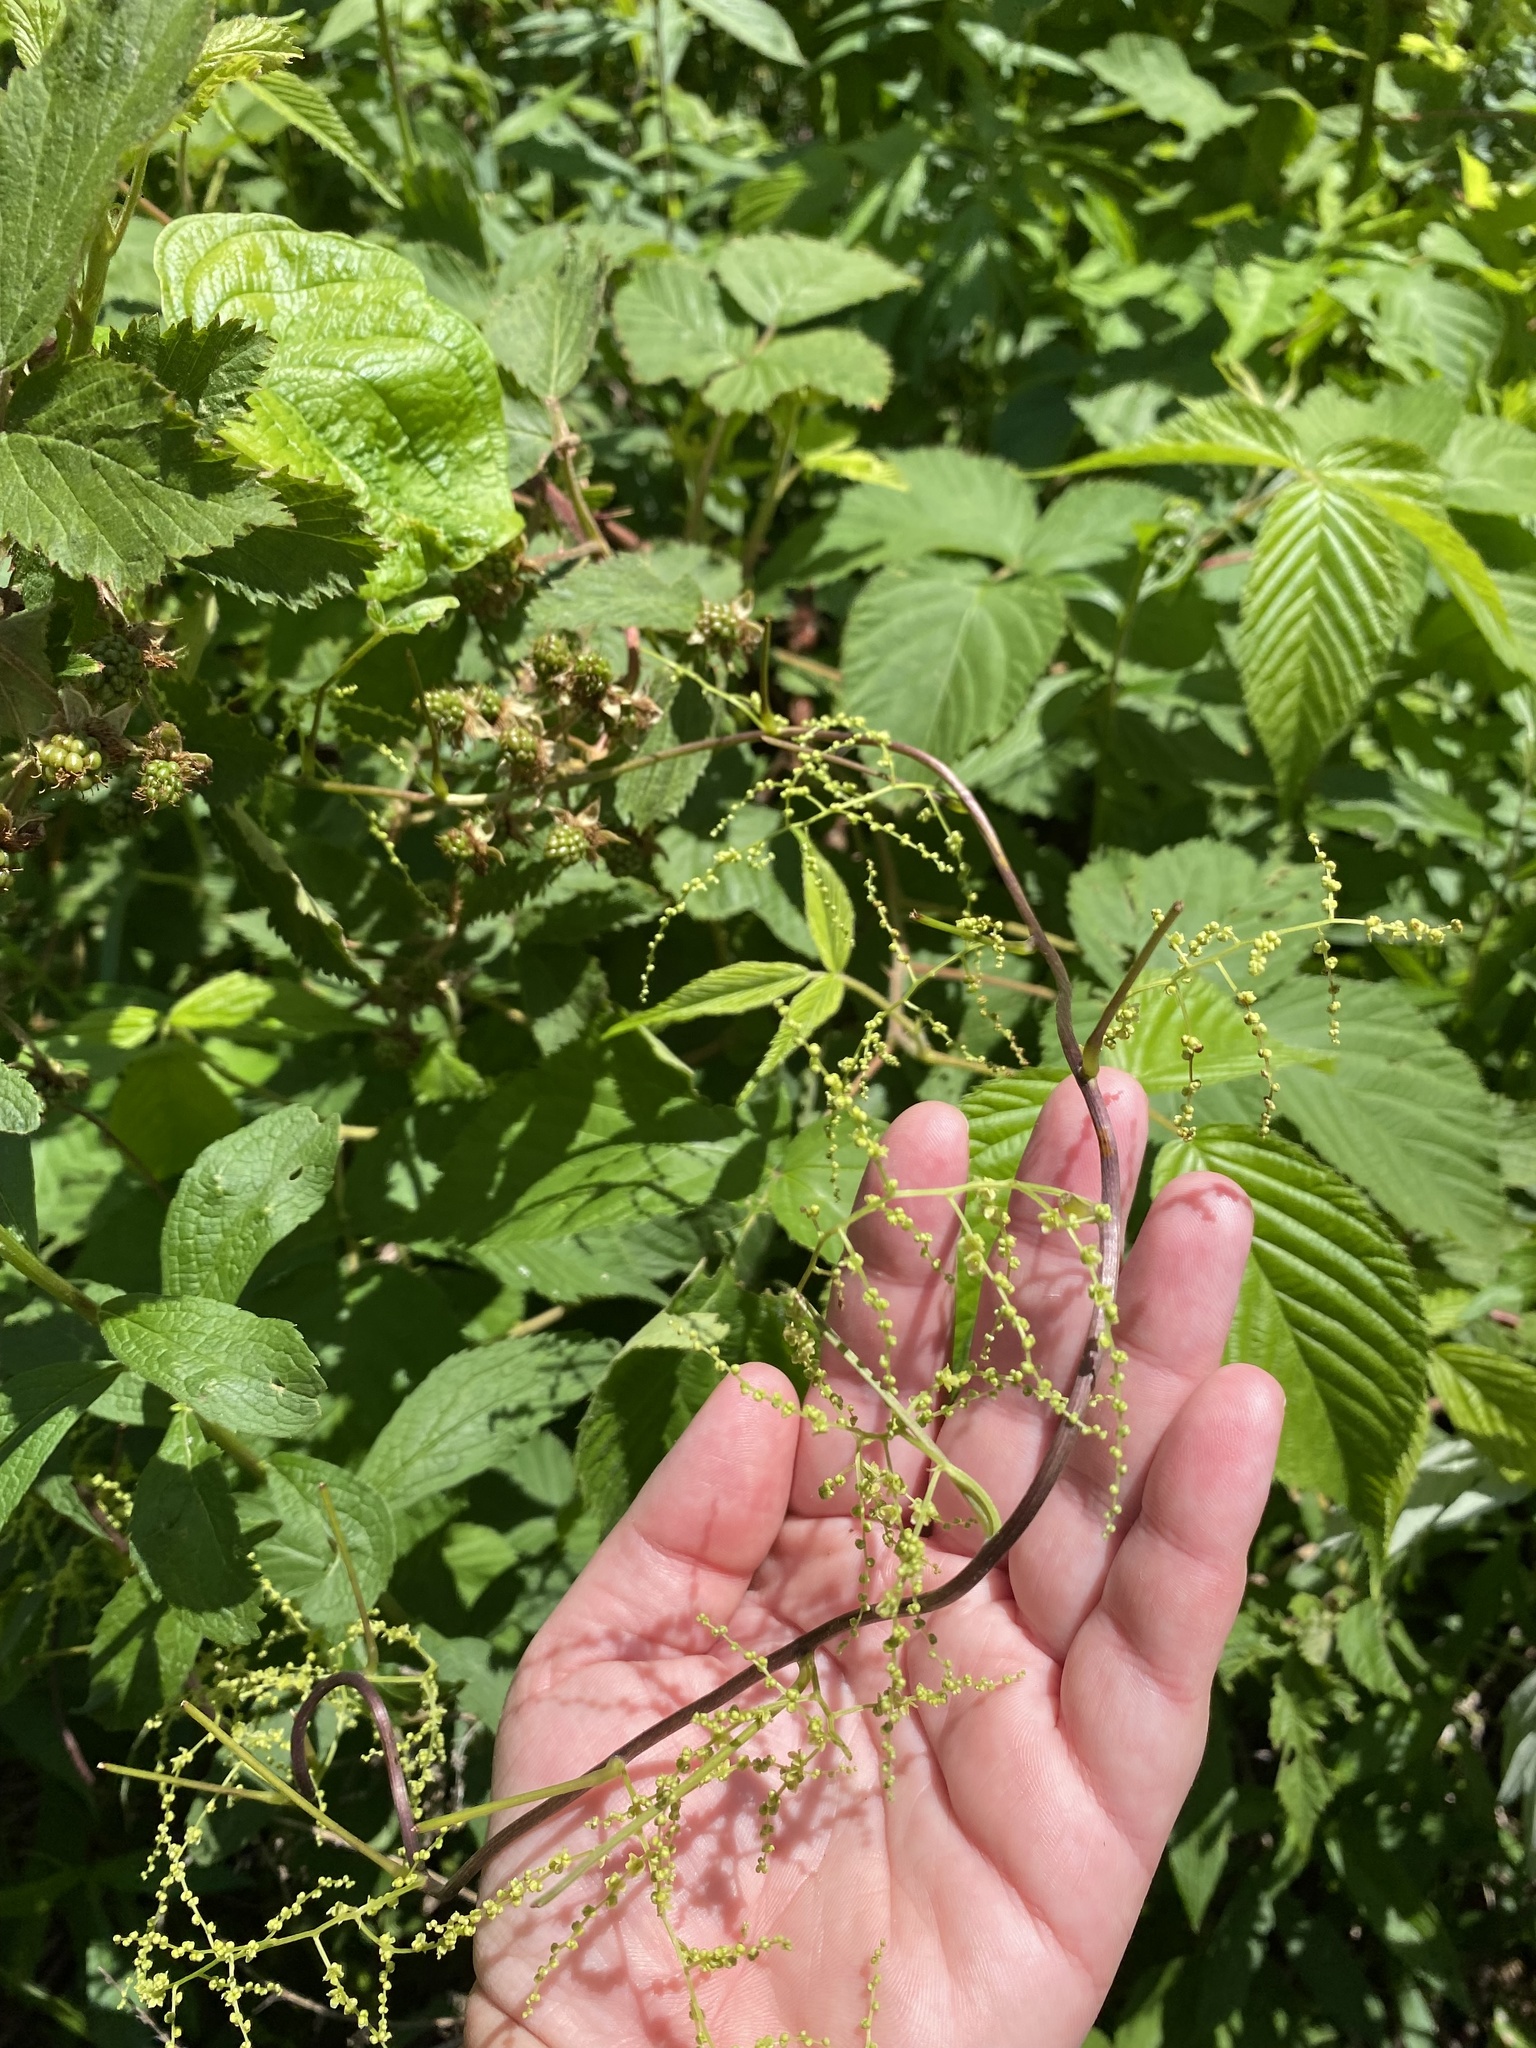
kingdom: Plantae
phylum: Tracheophyta
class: Liliopsida
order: Dioscoreales
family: Dioscoreaceae
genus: Dioscorea
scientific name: Dioscorea villosa
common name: Wild yam
